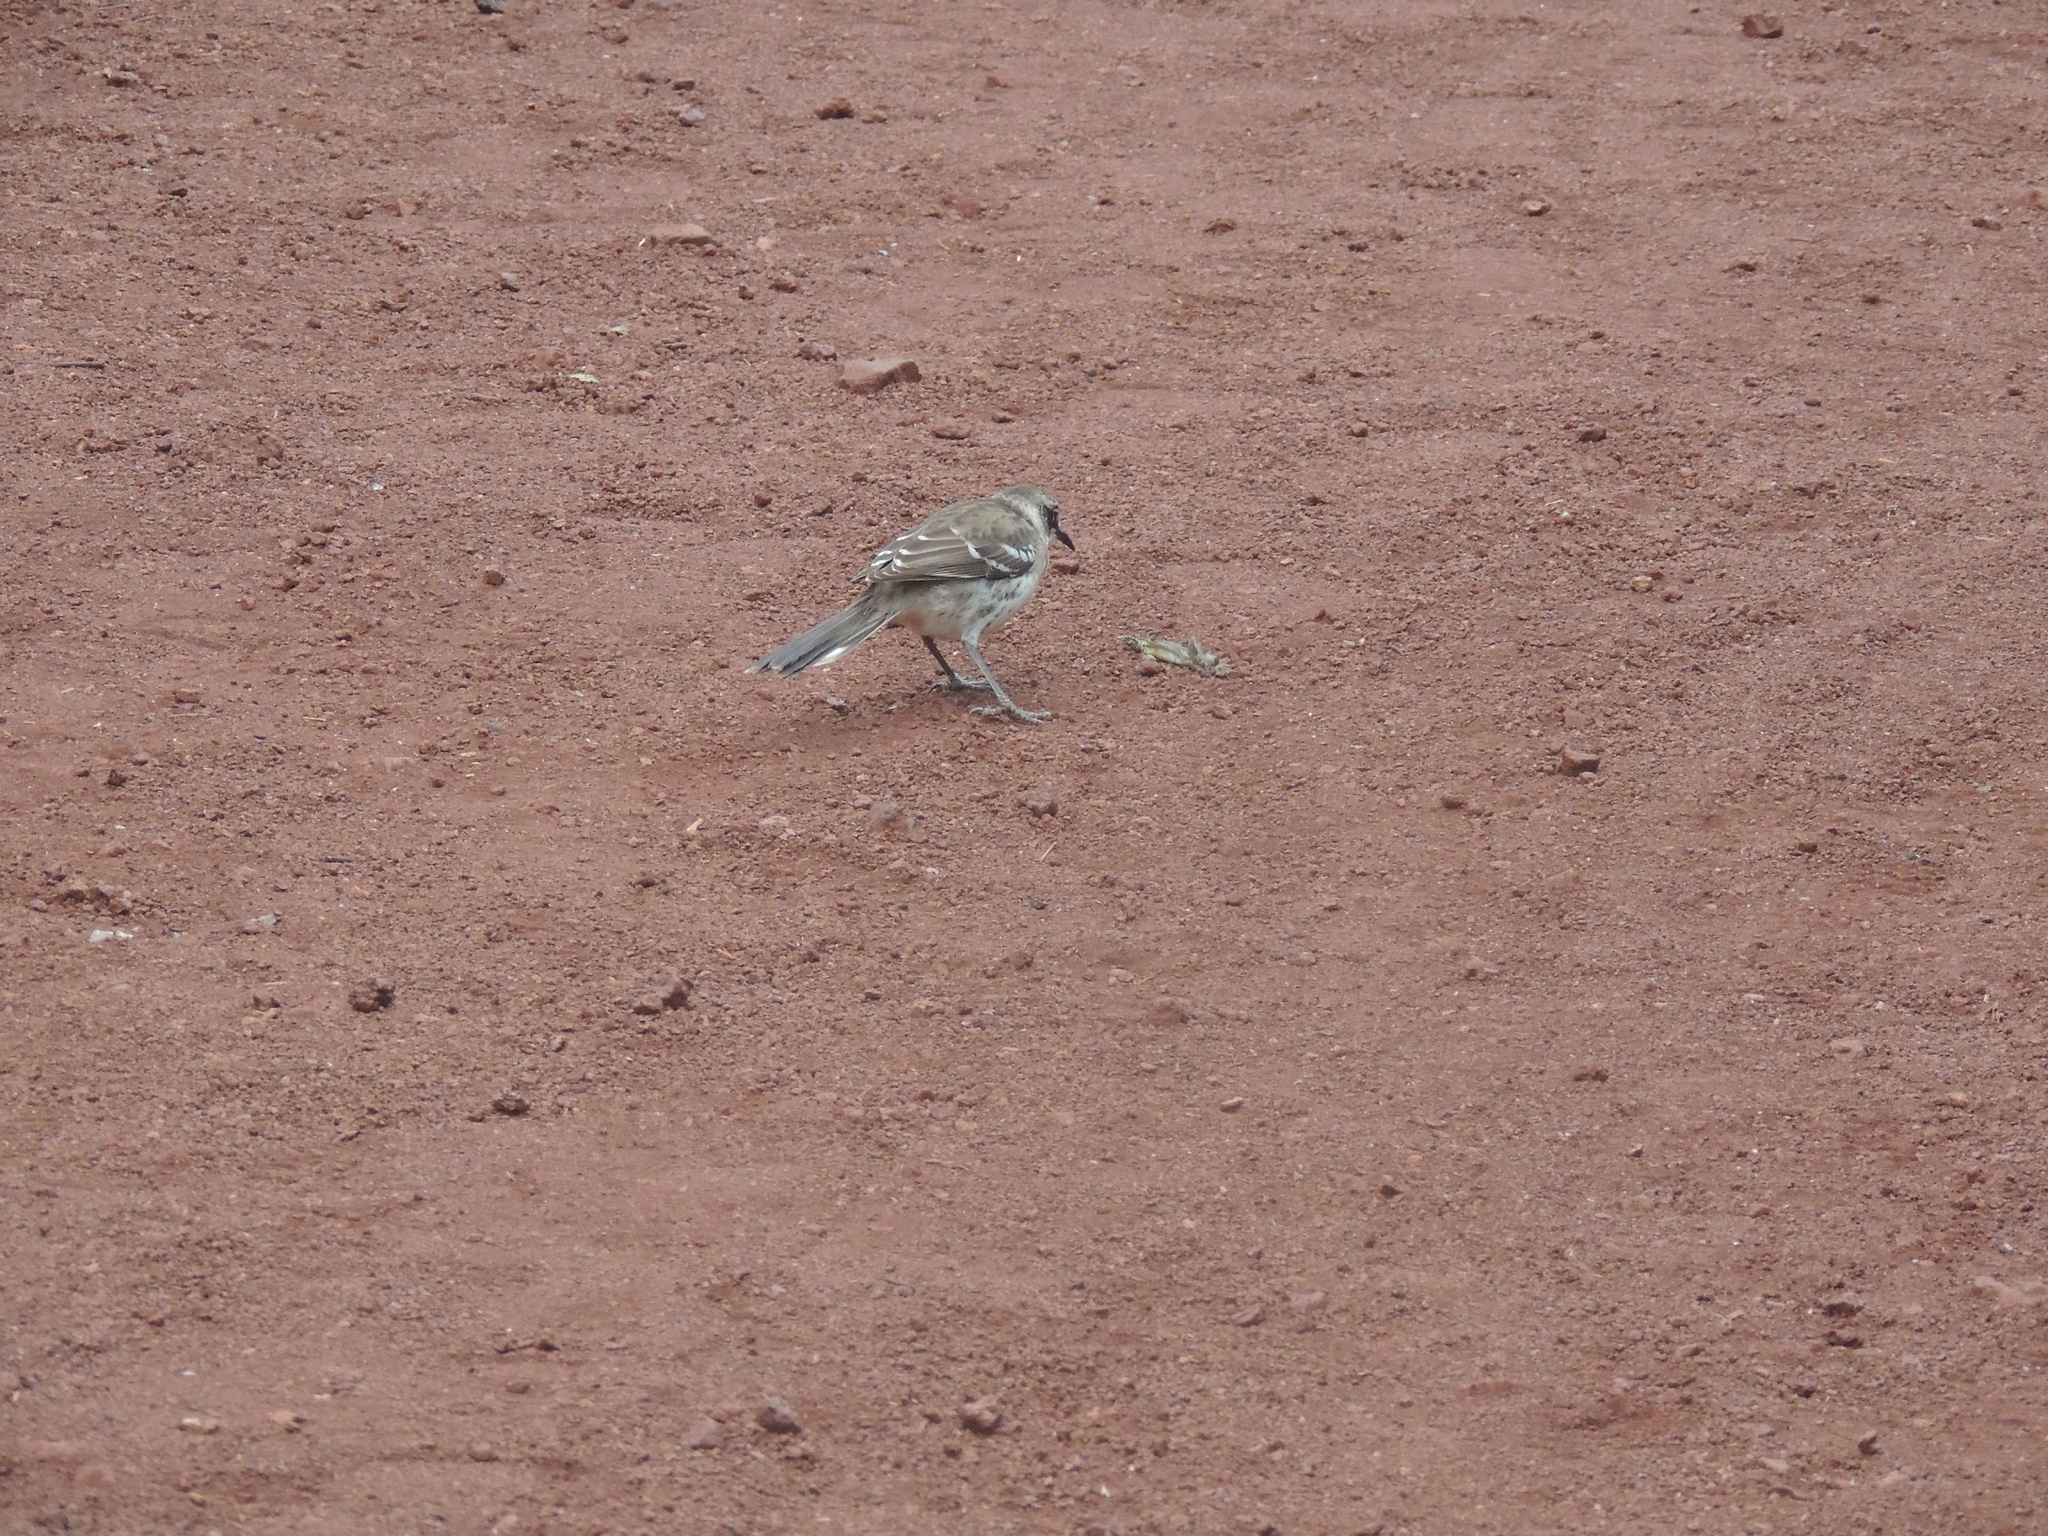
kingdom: Animalia
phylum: Chordata
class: Aves
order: Passeriformes
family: Mimidae
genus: Mimus
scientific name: Mimus parvulus
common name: Galapagos mockingbird
